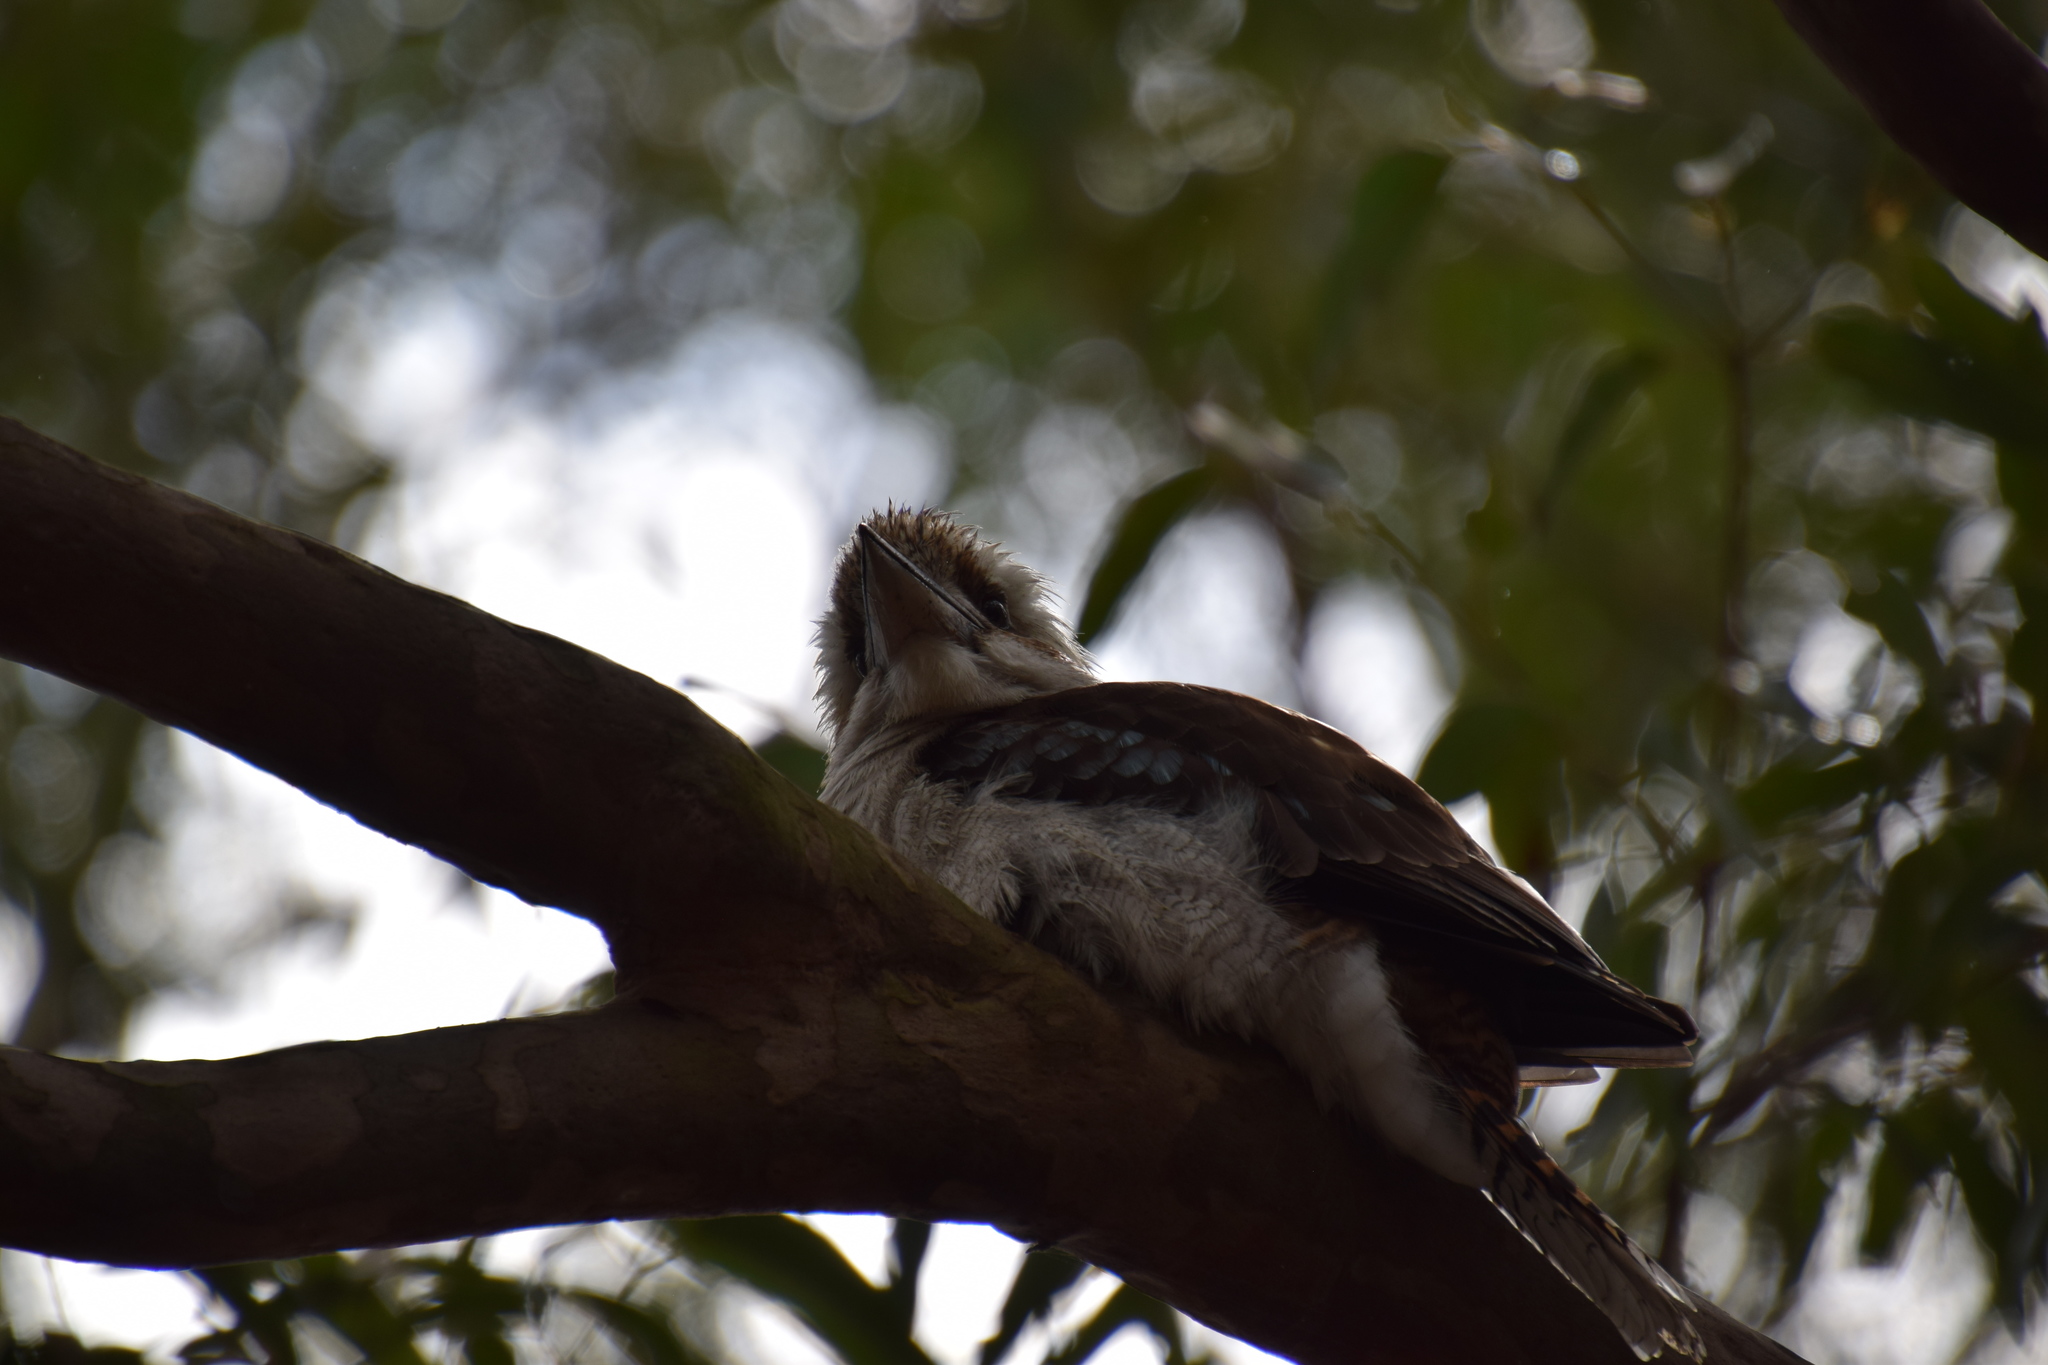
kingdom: Animalia
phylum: Chordata
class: Aves
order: Coraciiformes
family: Alcedinidae
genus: Dacelo
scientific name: Dacelo novaeguineae
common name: Laughing kookaburra
